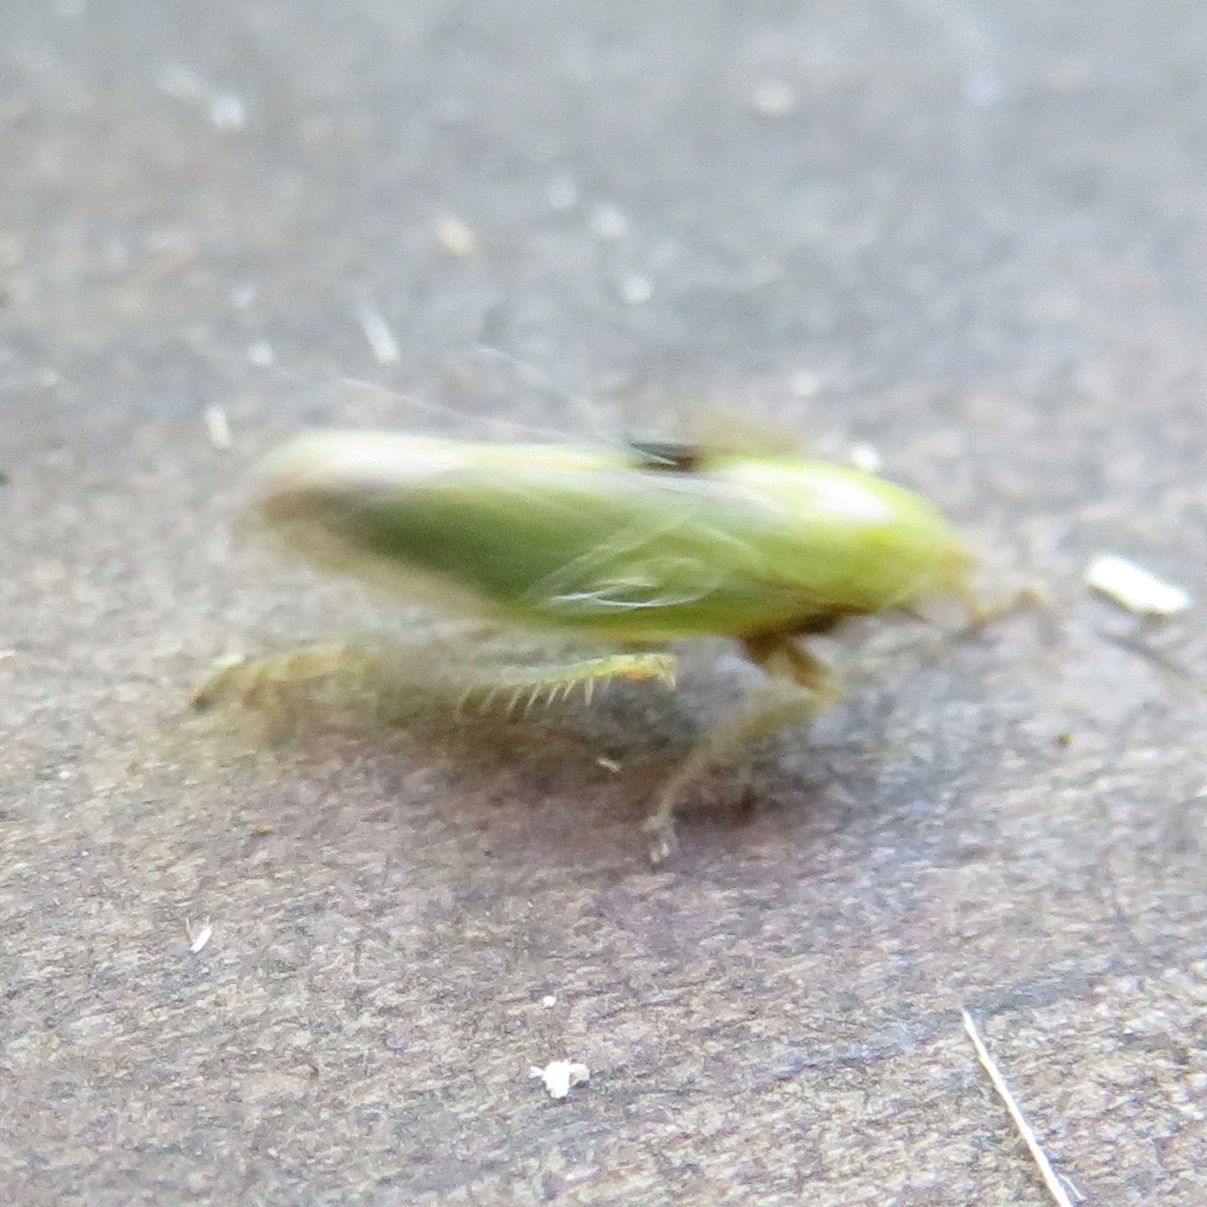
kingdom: Animalia
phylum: Arthropoda
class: Insecta
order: Hemiptera
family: Aphrophoridae
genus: Philaenus
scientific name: Philaenus spumarius
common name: Meadow spittlebug
